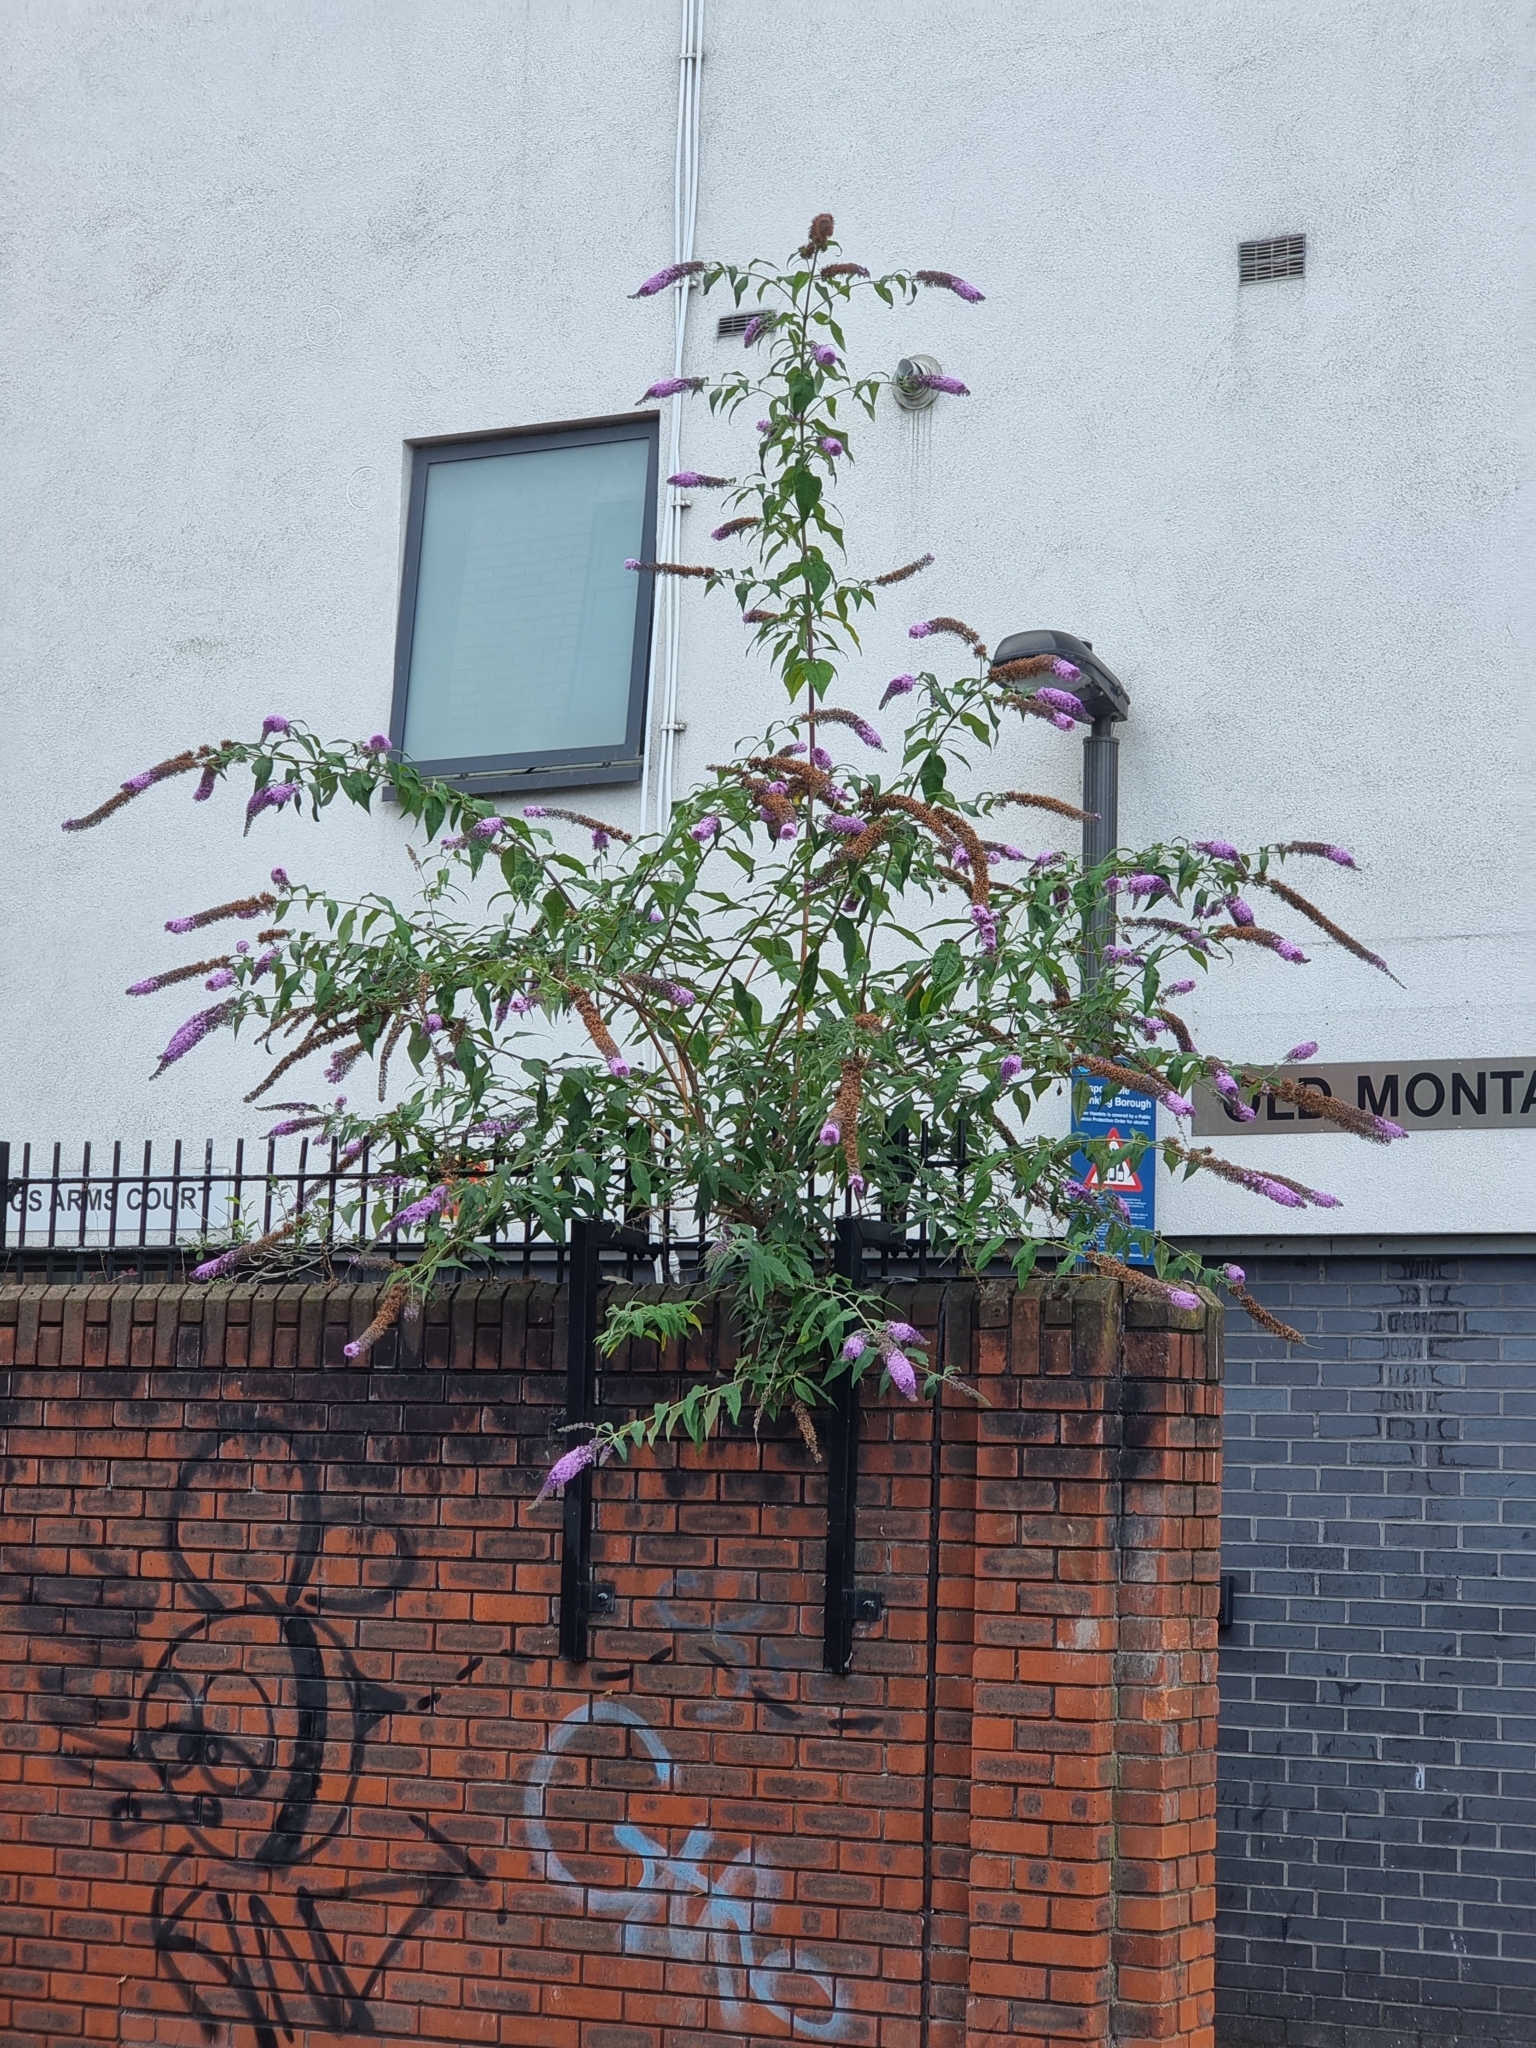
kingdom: Plantae
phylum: Tracheophyta
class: Magnoliopsida
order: Lamiales
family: Scrophulariaceae
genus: Buddleja
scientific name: Buddleja davidii
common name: Butterfly-bush
